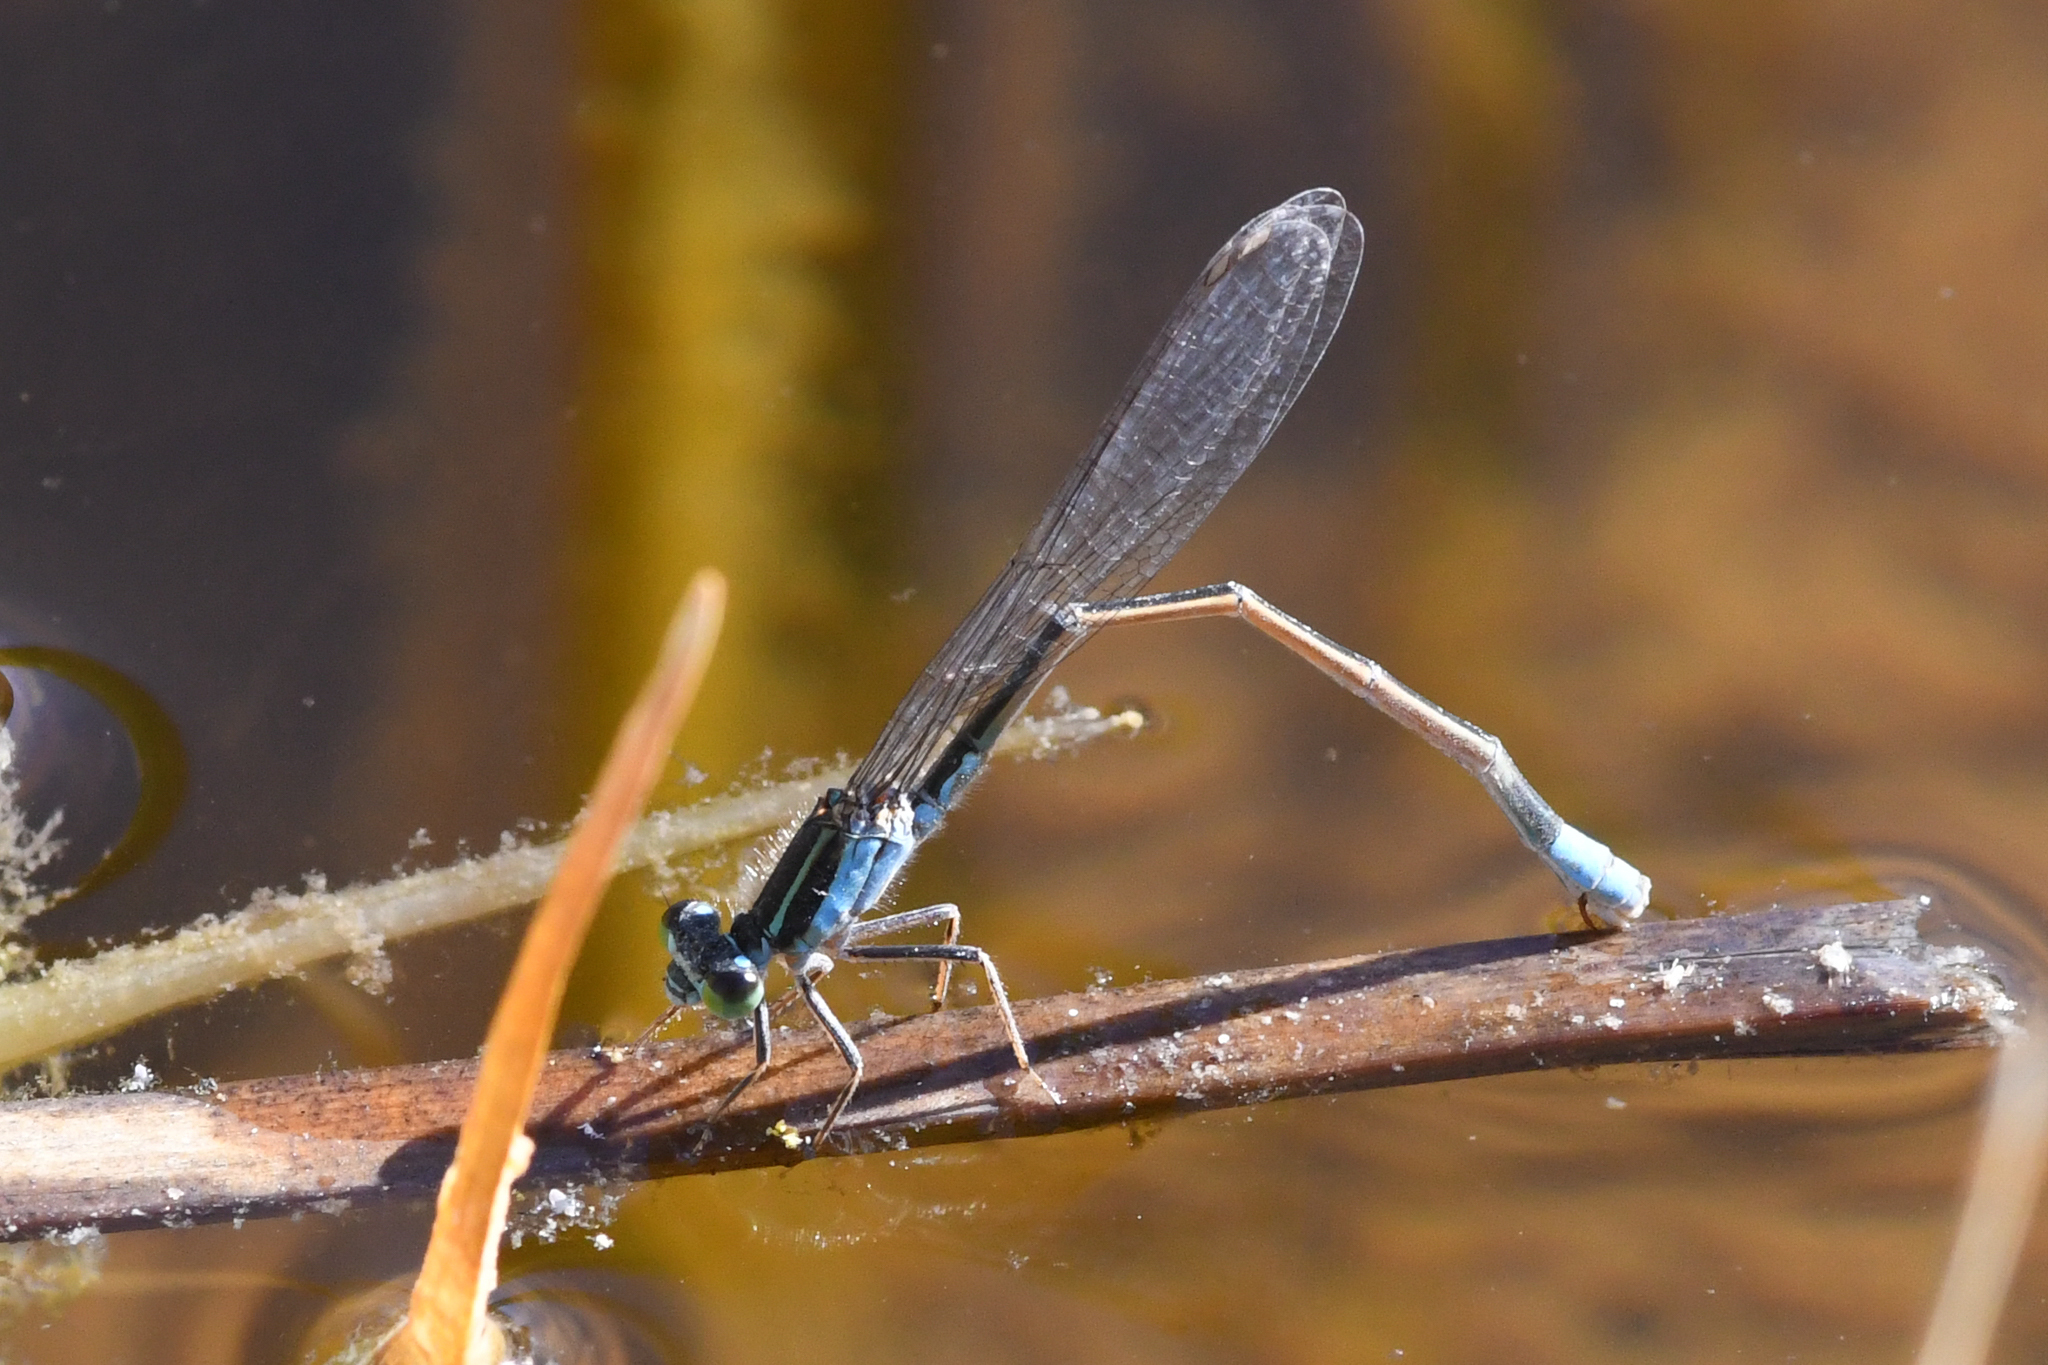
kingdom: Animalia
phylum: Arthropoda
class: Insecta
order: Odonata
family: Coenagrionidae
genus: Ischnura
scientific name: Ischnura ramburii
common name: Rambur's forktail
